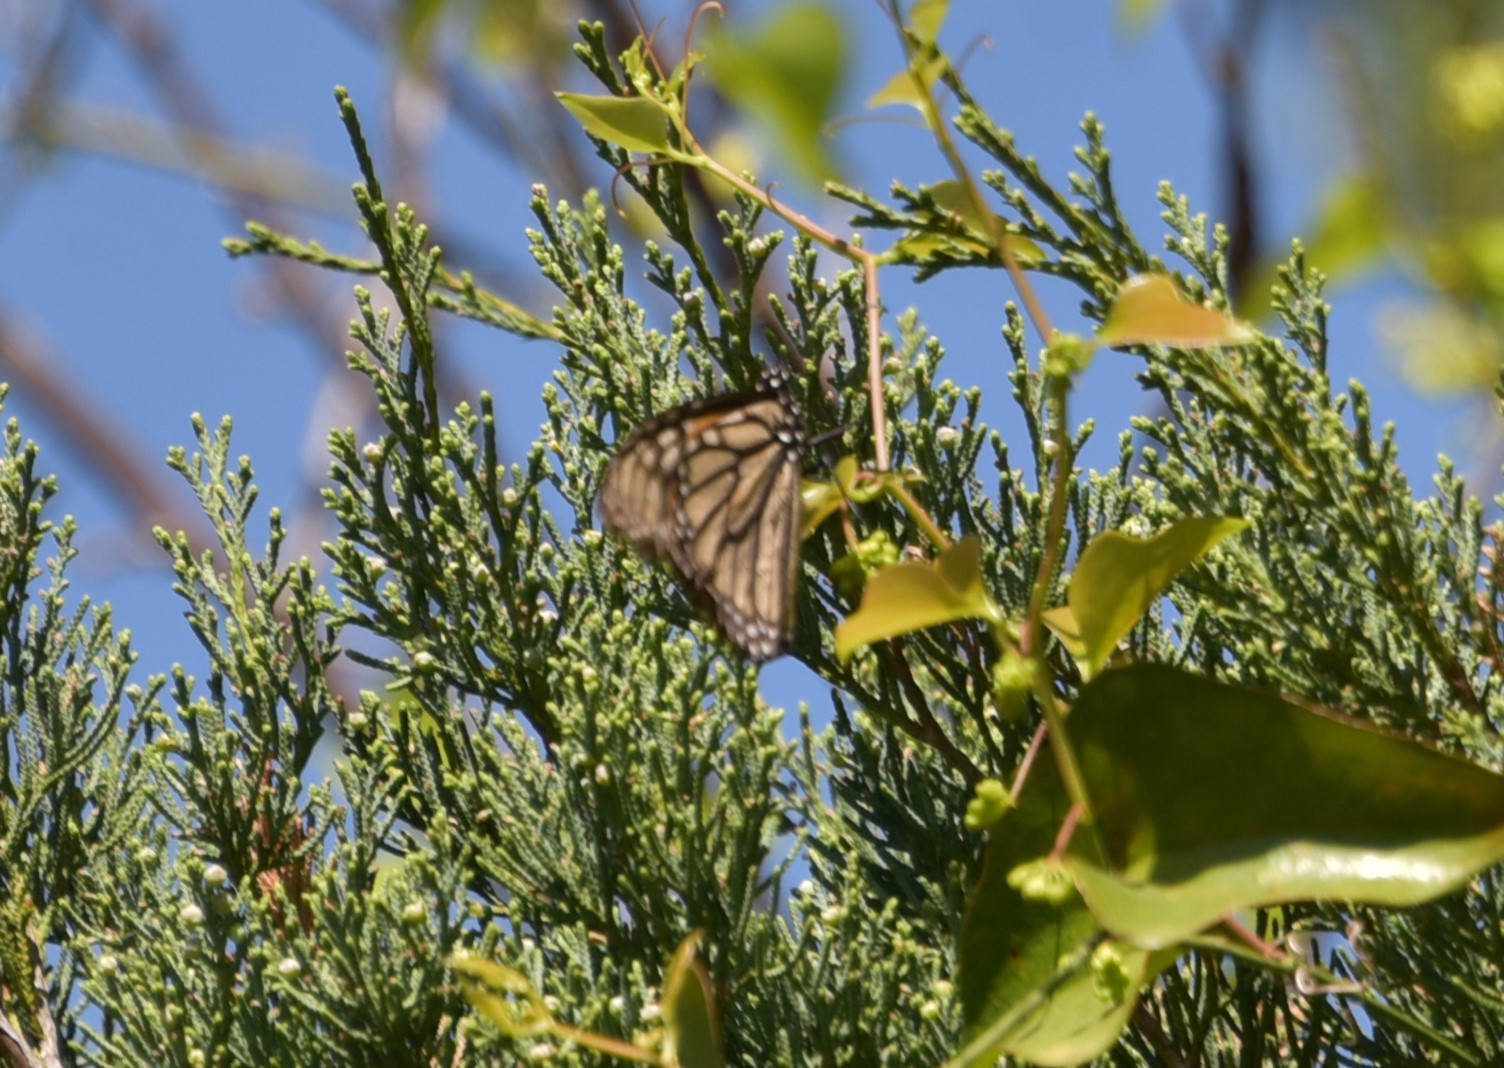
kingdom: Animalia
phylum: Arthropoda
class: Insecta
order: Lepidoptera
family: Nymphalidae
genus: Danaus
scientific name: Danaus plexippus
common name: Monarch
